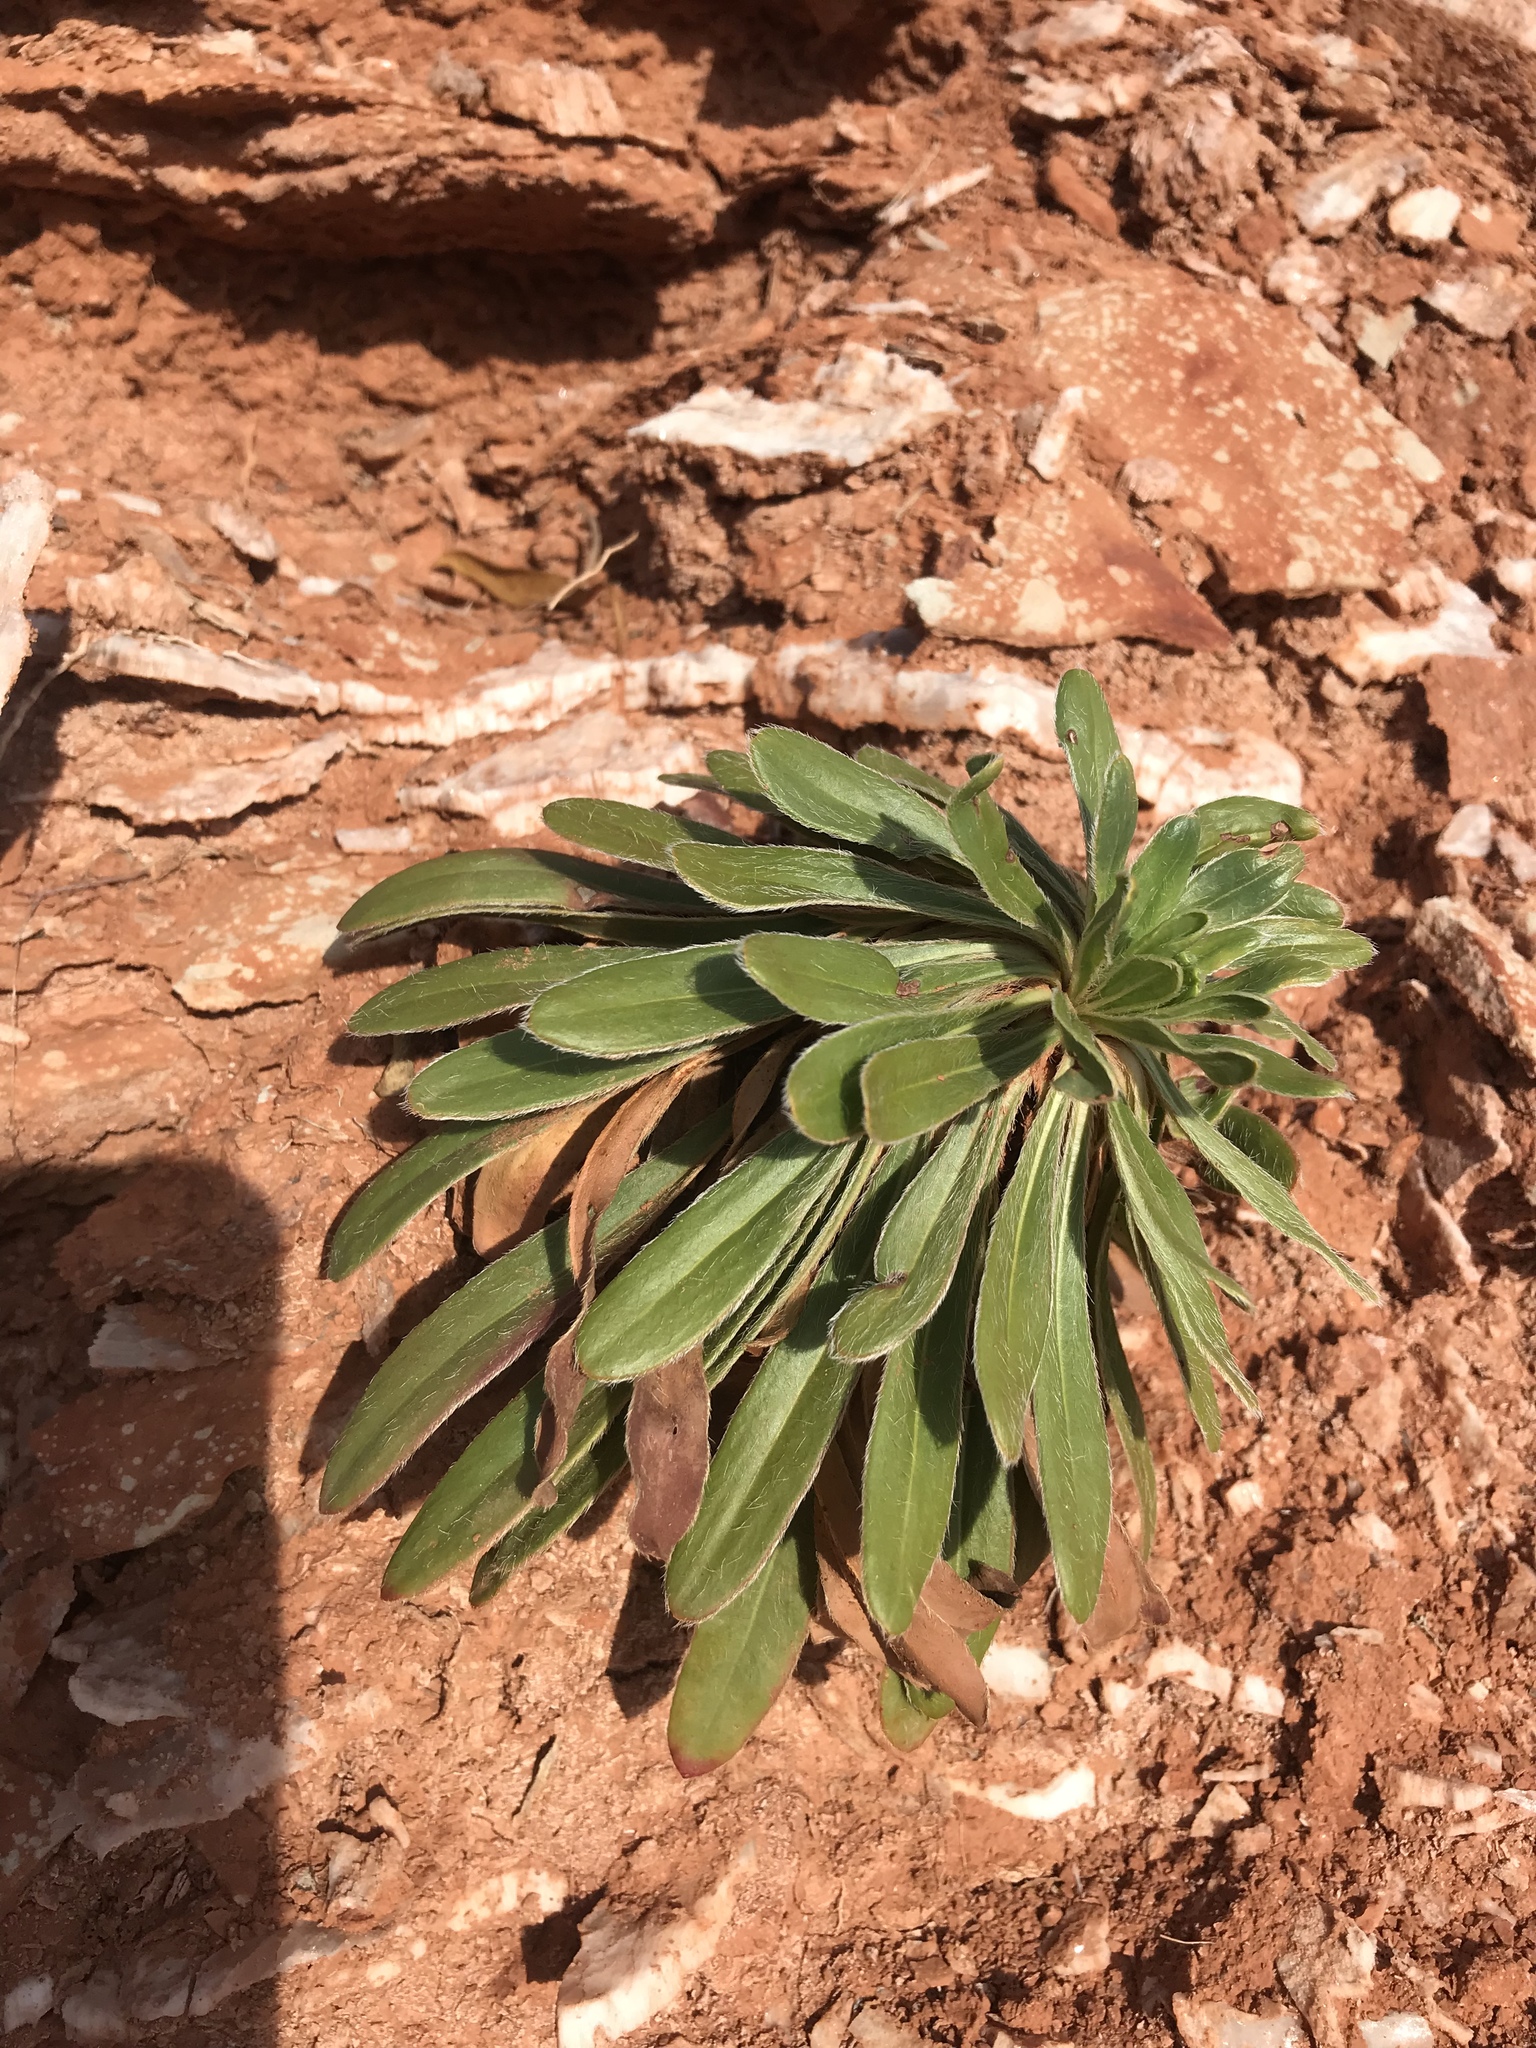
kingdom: Plantae
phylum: Tracheophyta
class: Magnoliopsida
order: Caryophyllales
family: Polygonaceae
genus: Eriogonum
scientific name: Eriogonum alatum
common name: Winged eriogonum
